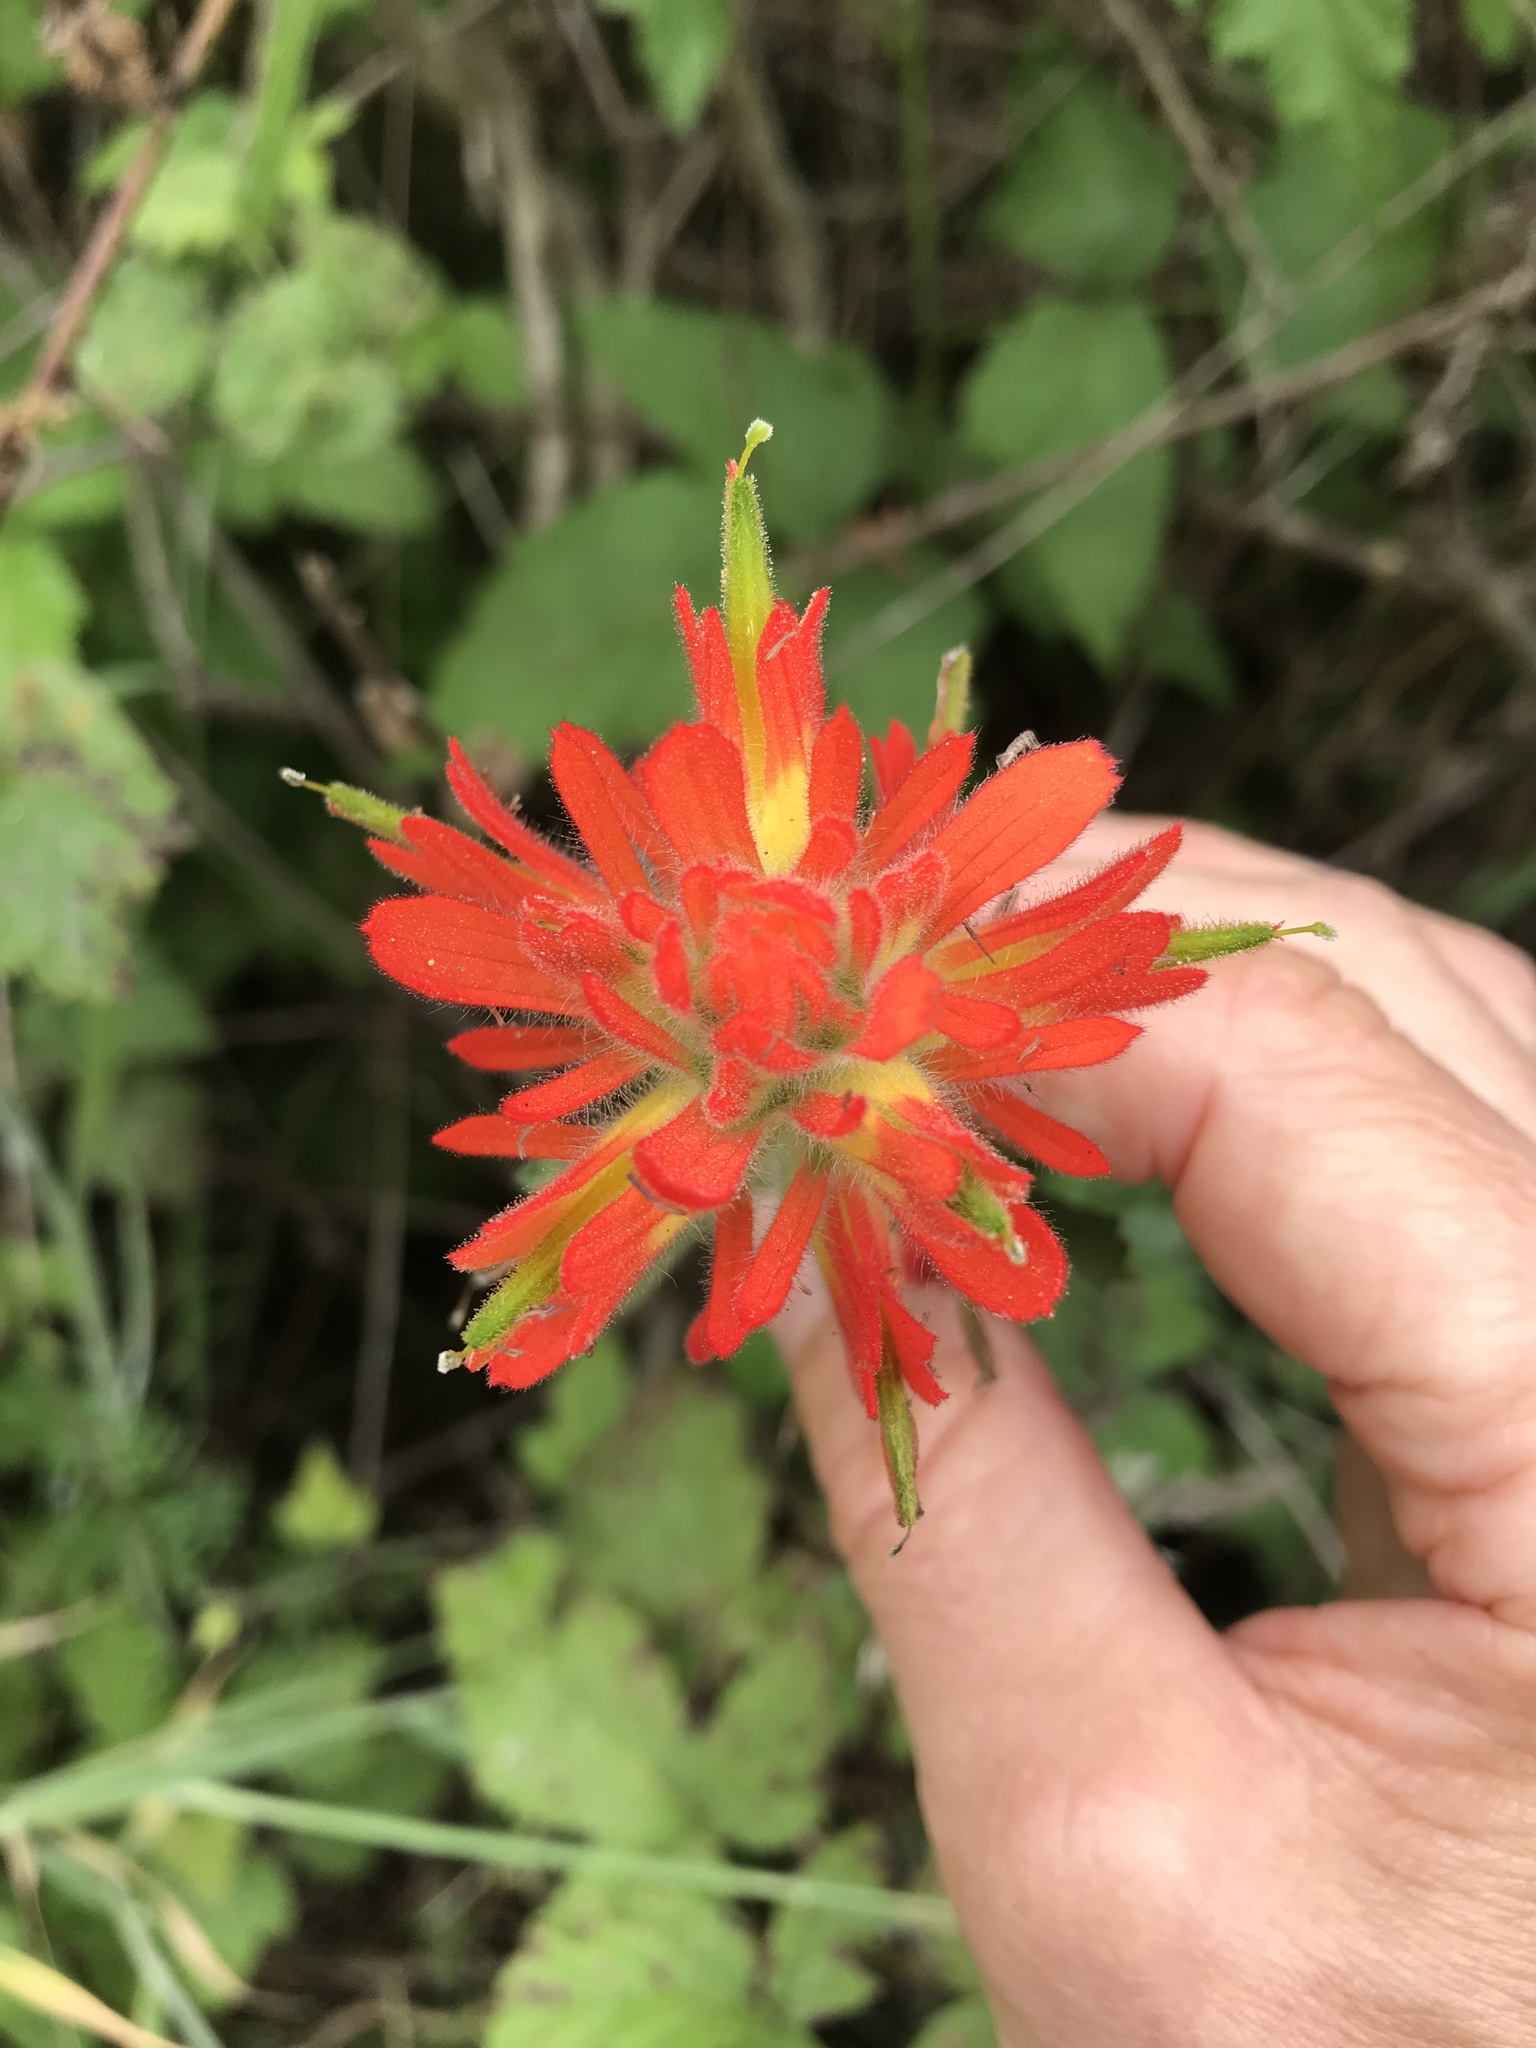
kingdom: Plantae
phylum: Tracheophyta
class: Magnoliopsida
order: Lamiales
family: Orobanchaceae
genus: Castilleja
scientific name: Castilleja affinis
